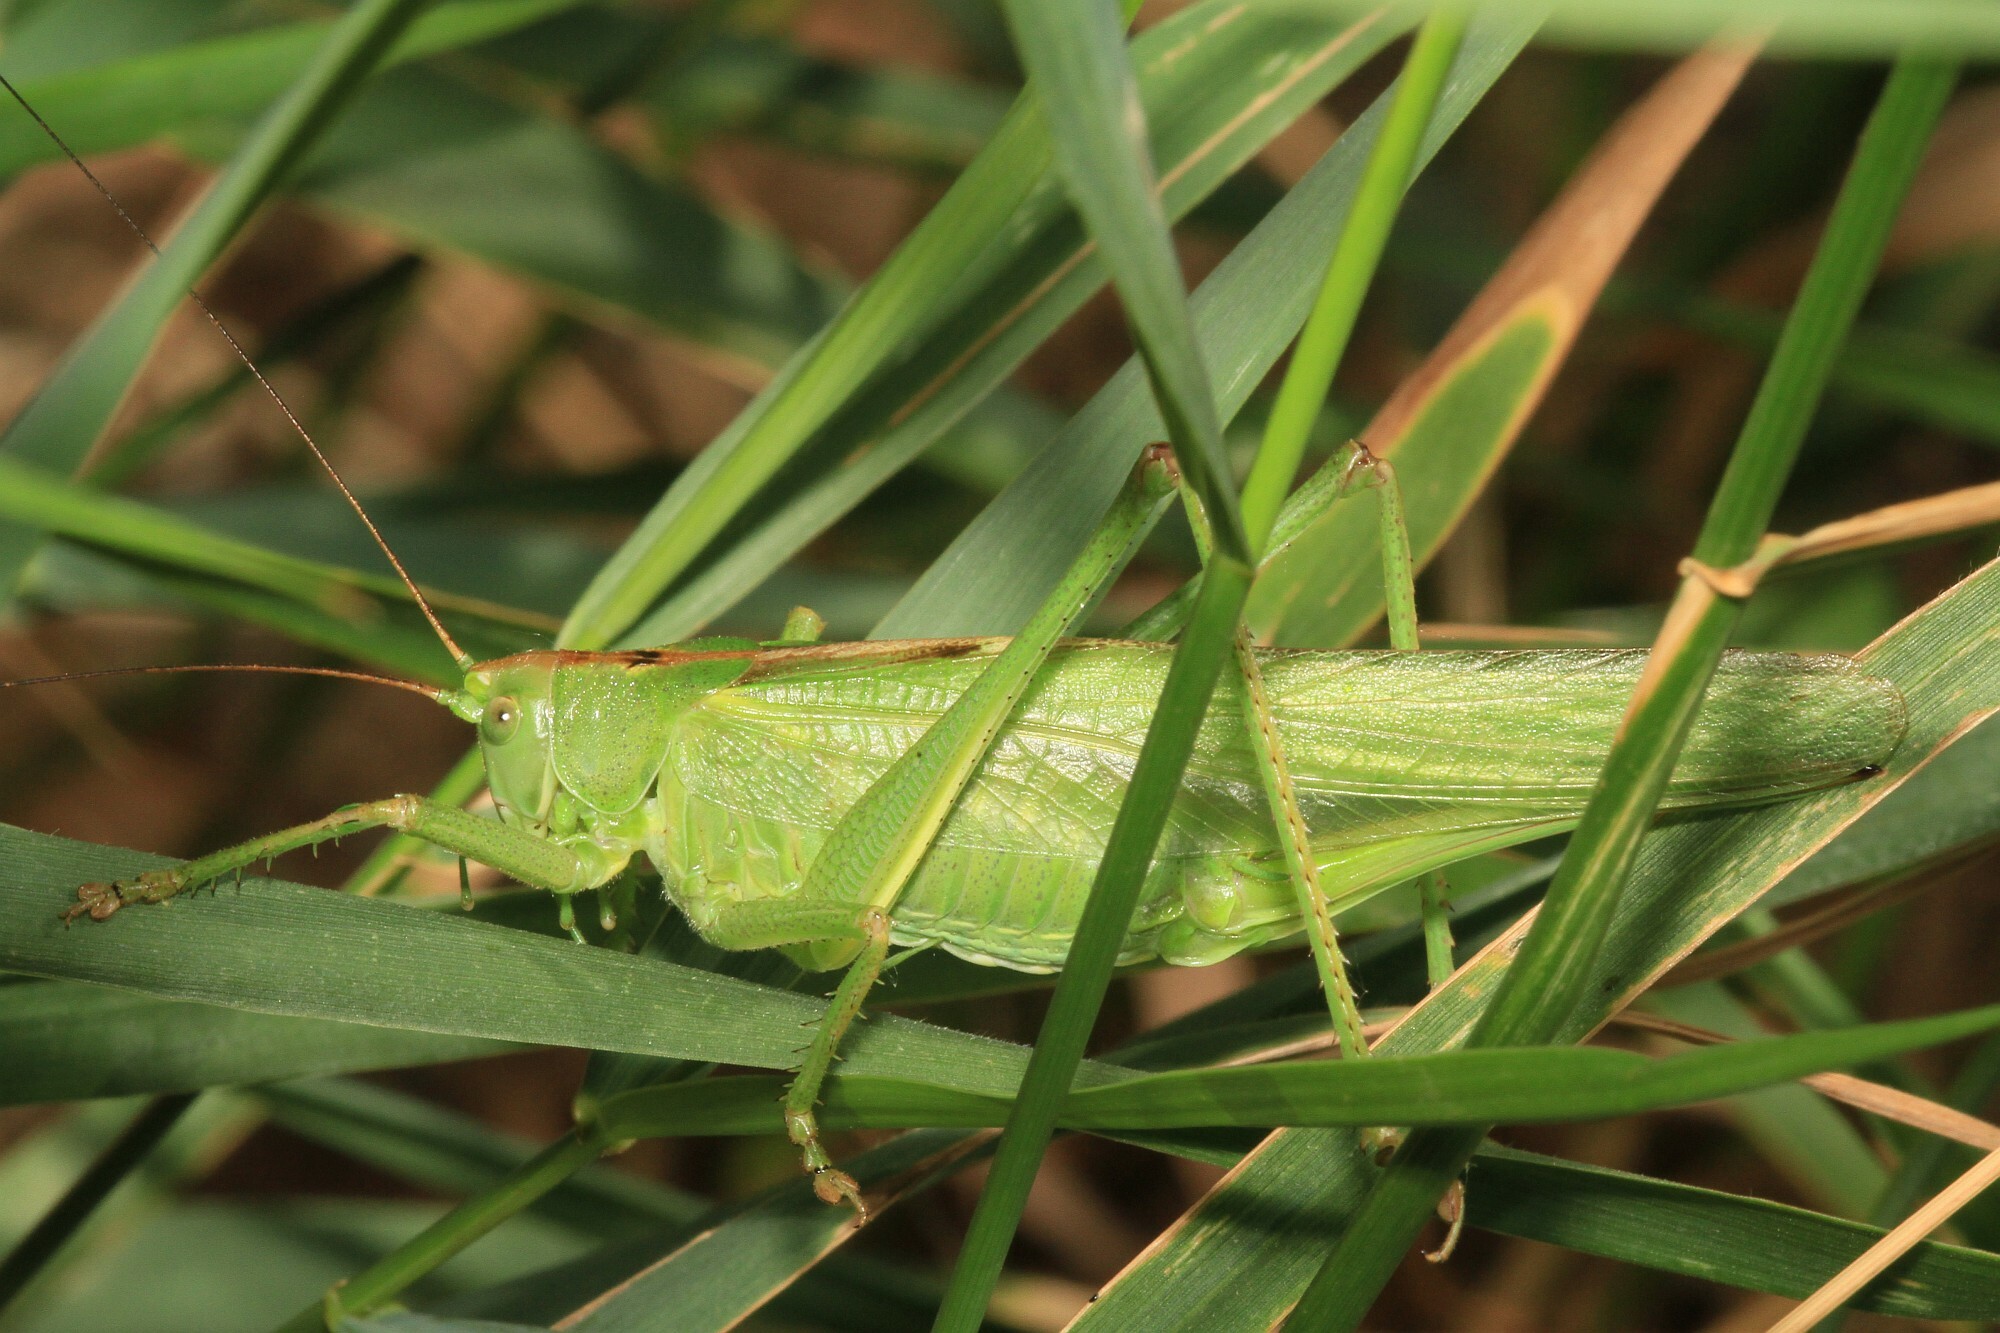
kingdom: Animalia
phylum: Arthropoda
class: Insecta
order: Orthoptera
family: Tettigoniidae
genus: Tettigonia
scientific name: Tettigonia viridissima
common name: Great green bush-cricket
